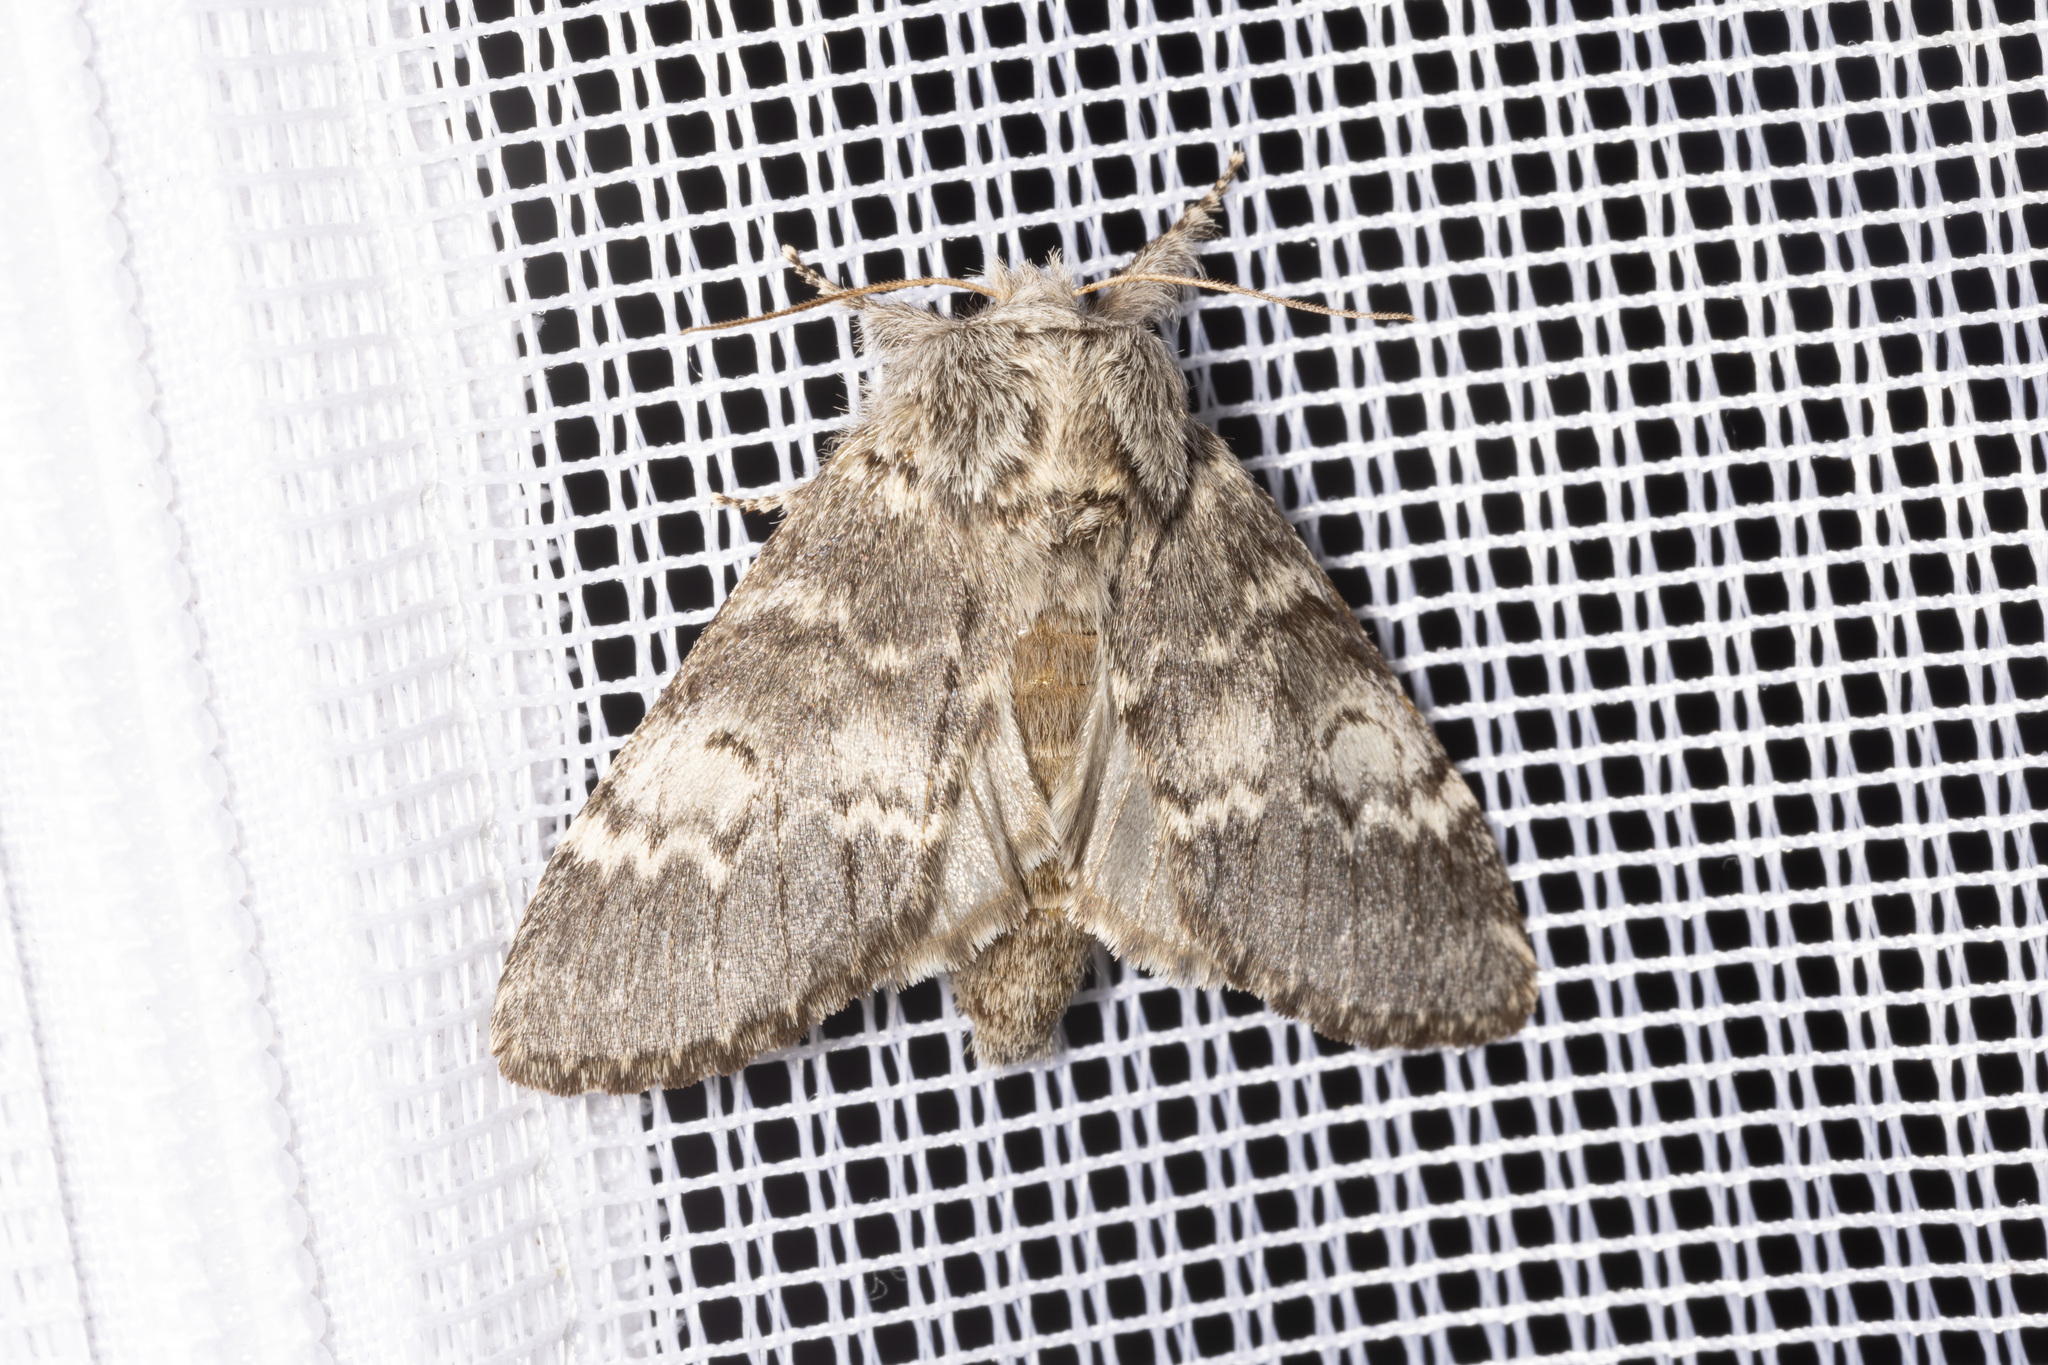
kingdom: Animalia
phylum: Arthropoda
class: Insecta
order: Lepidoptera
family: Notodontidae
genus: Drymonia
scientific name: Drymonia ruficornis
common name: Lunar marbled brown
